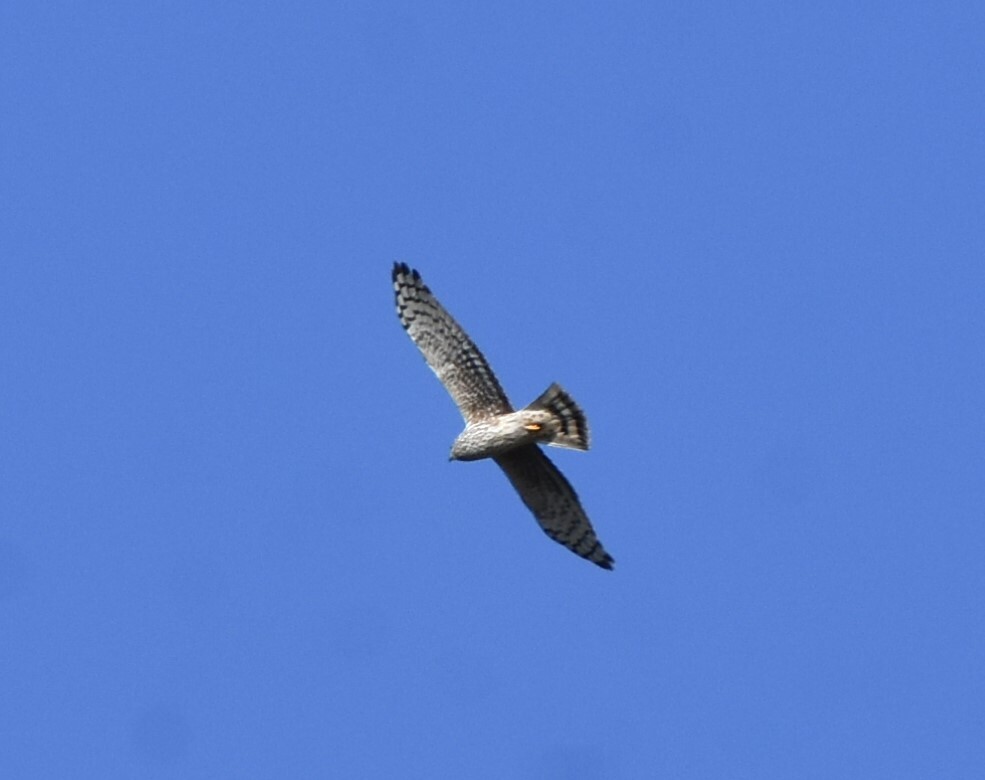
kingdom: Animalia
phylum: Chordata
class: Aves
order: Accipitriformes
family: Accipitridae
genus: Circus
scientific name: Circus cyaneus
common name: Hen harrier
